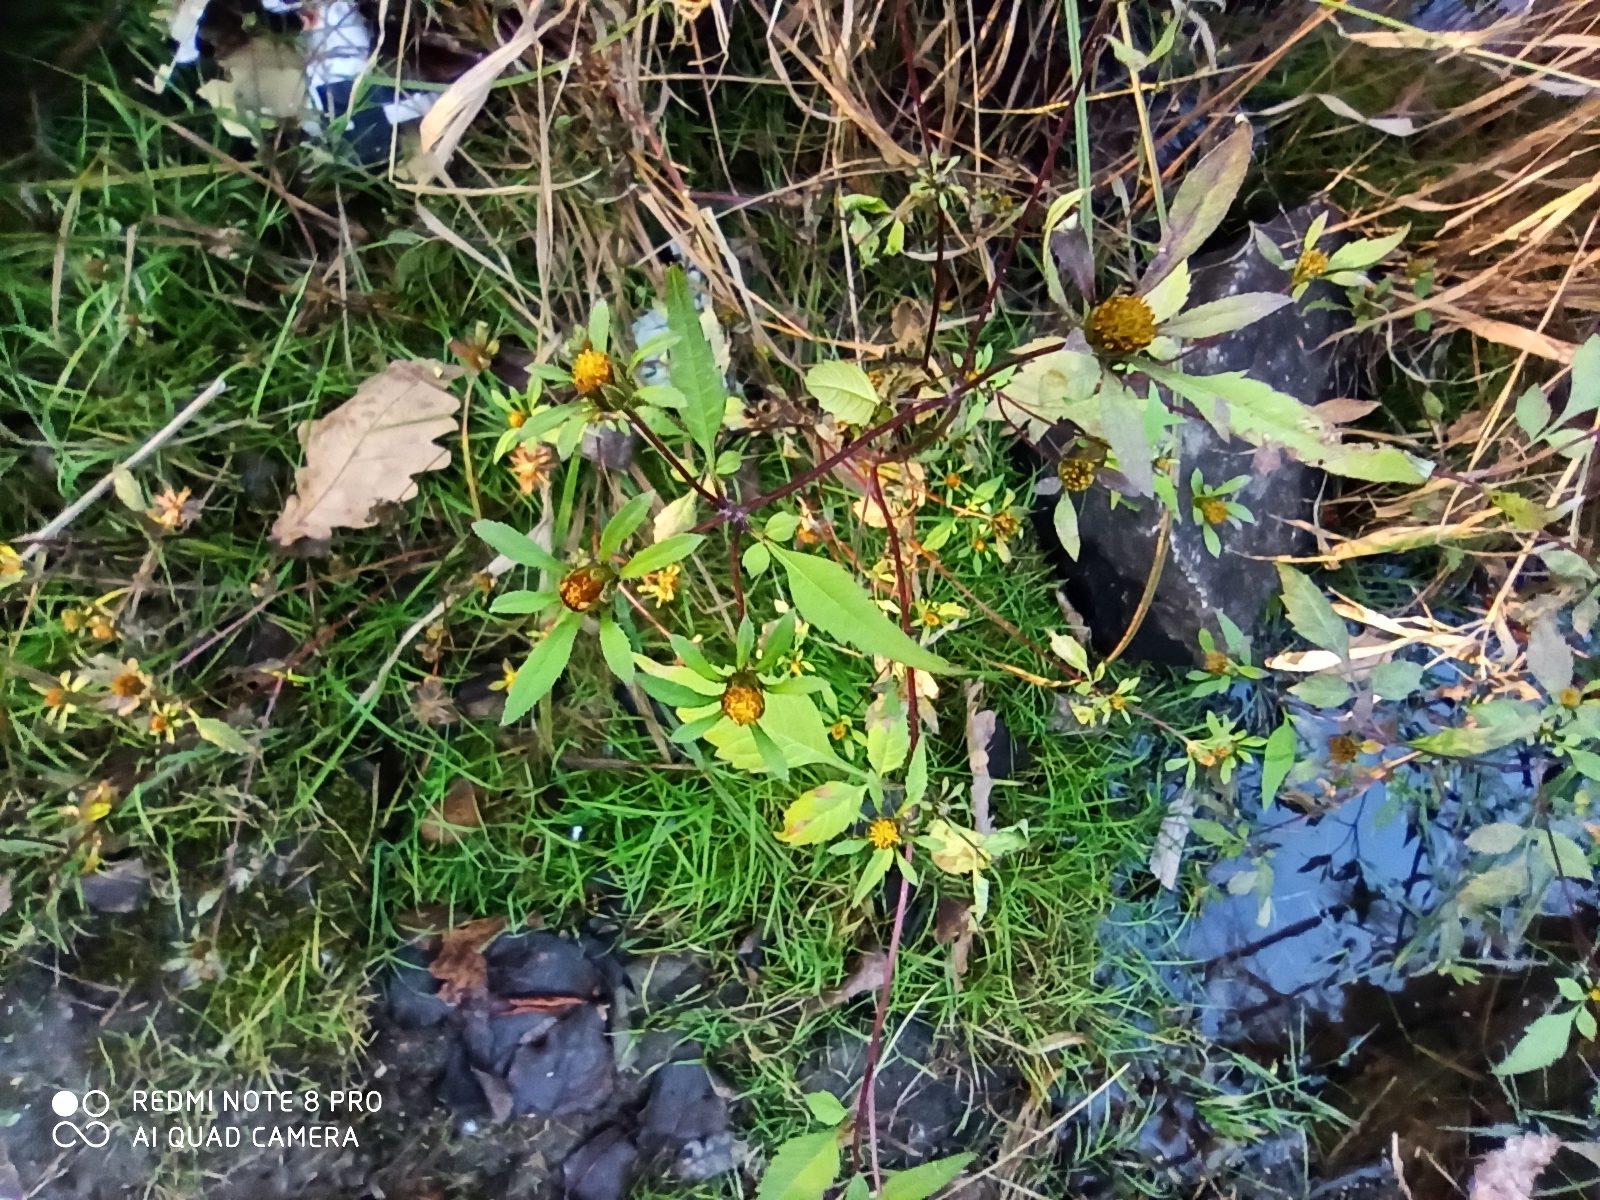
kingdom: Plantae
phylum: Tracheophyta
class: Magnoliopsida
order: Asterales
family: Asteraceae
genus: Bidens
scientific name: Bidens tripartita
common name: Trifid bur-marigold
